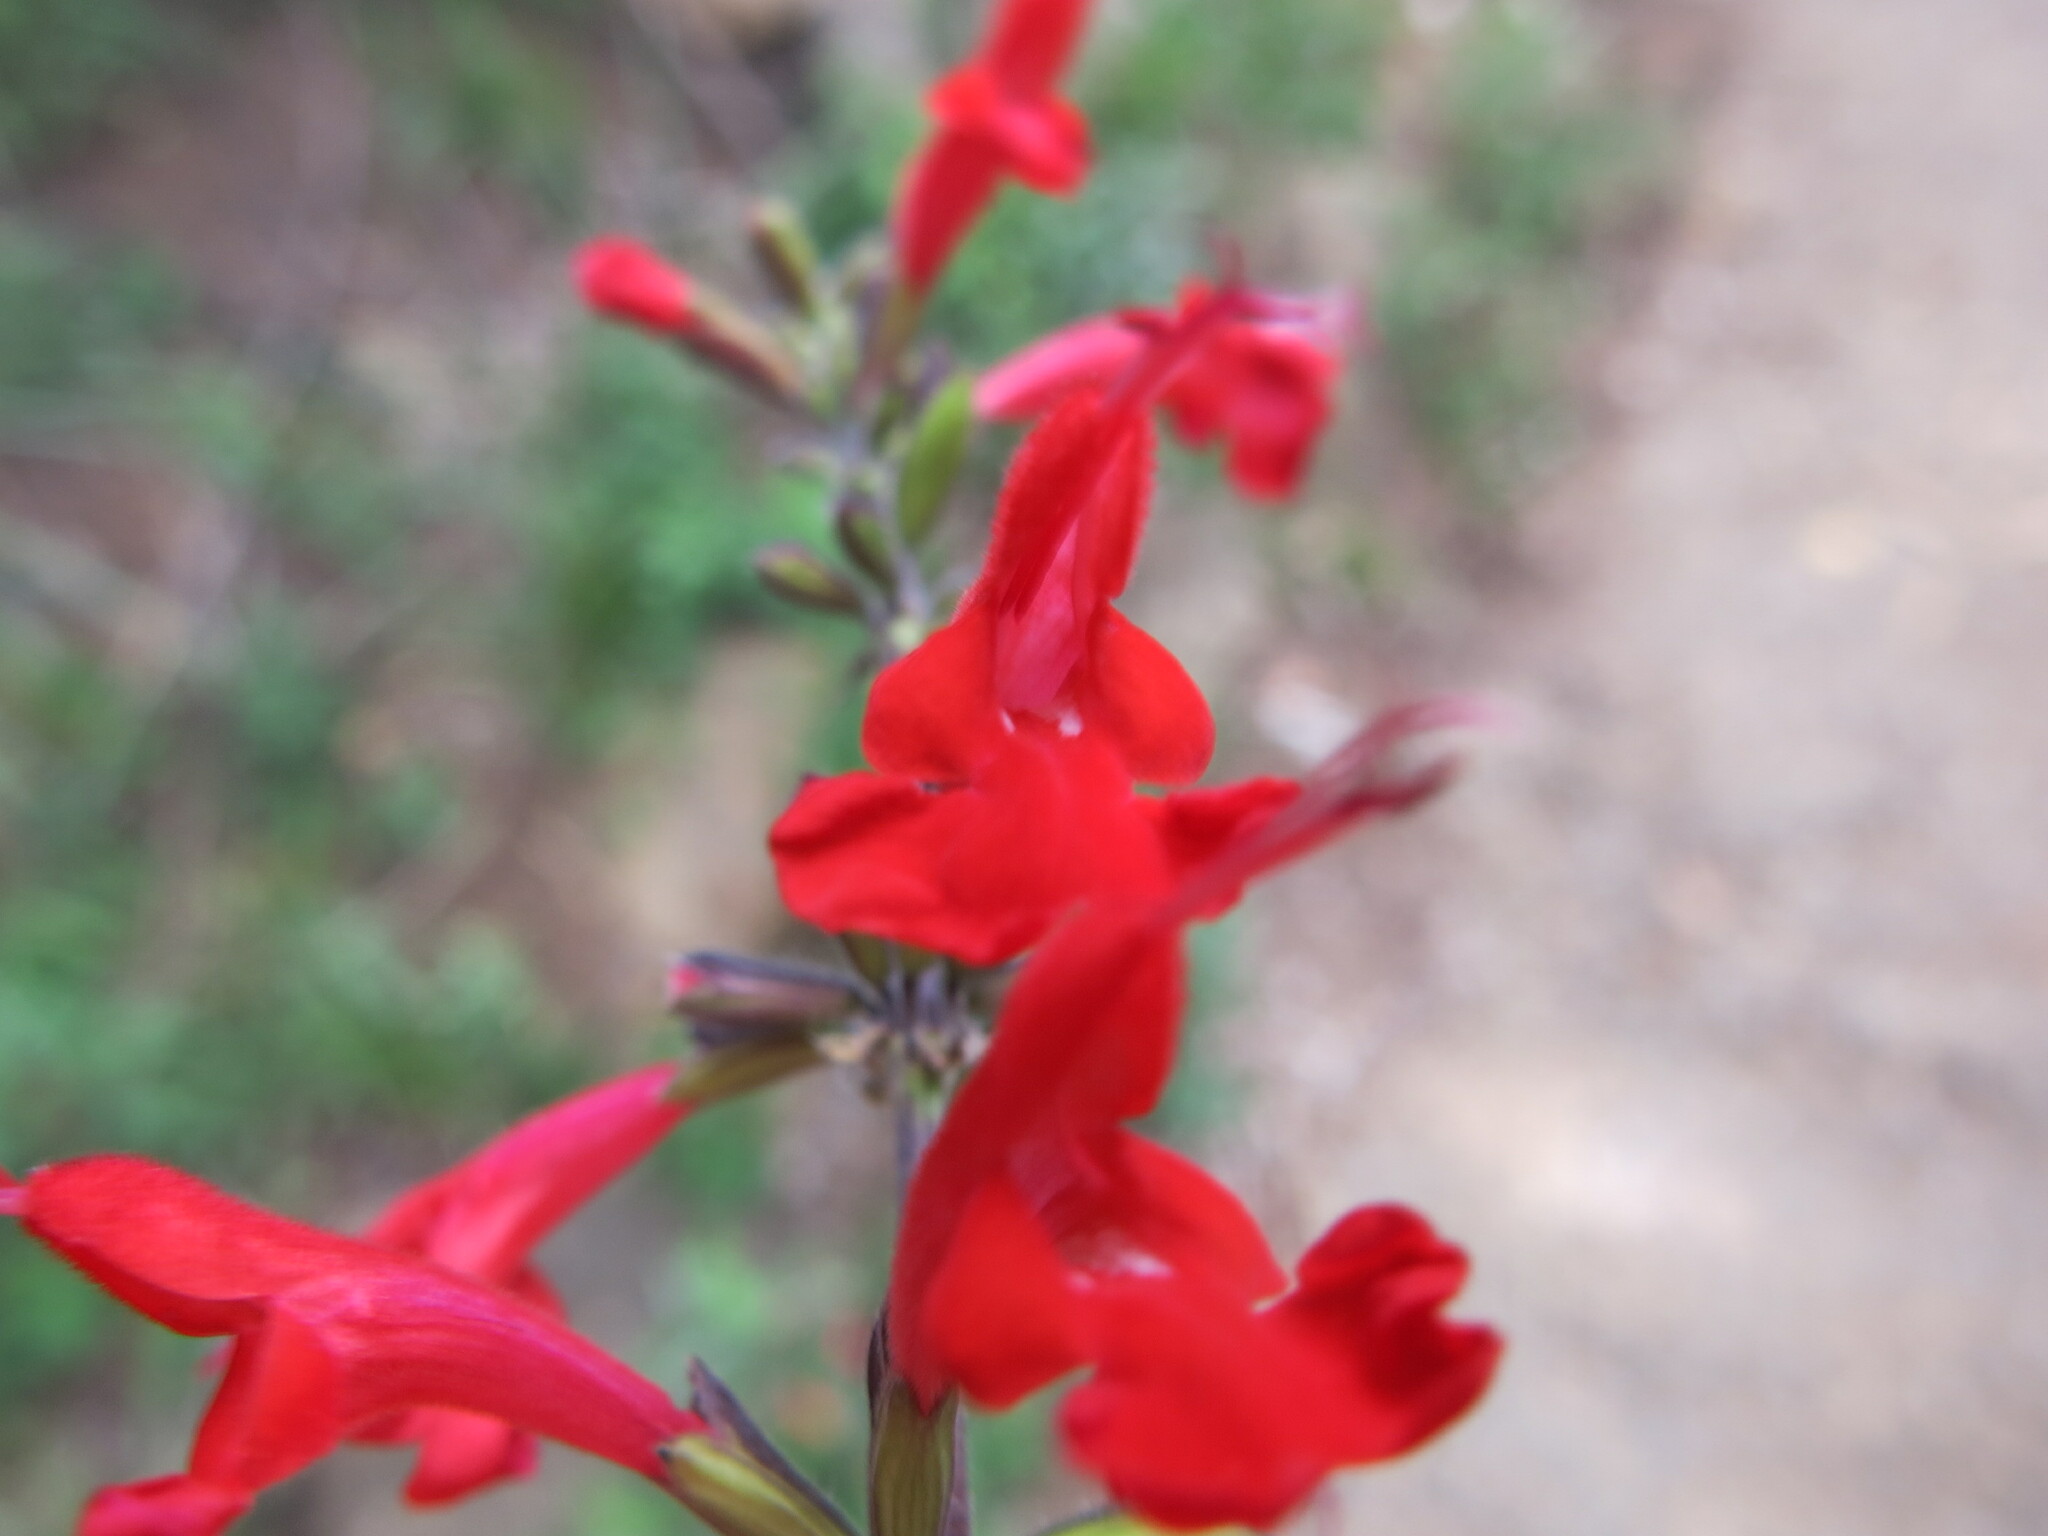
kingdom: Plantae
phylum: Tracheophyta
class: Magnoliopsida
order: Lamiales
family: Lamiaceae
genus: Salvia
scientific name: Salvia coccinea
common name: Blood sage
